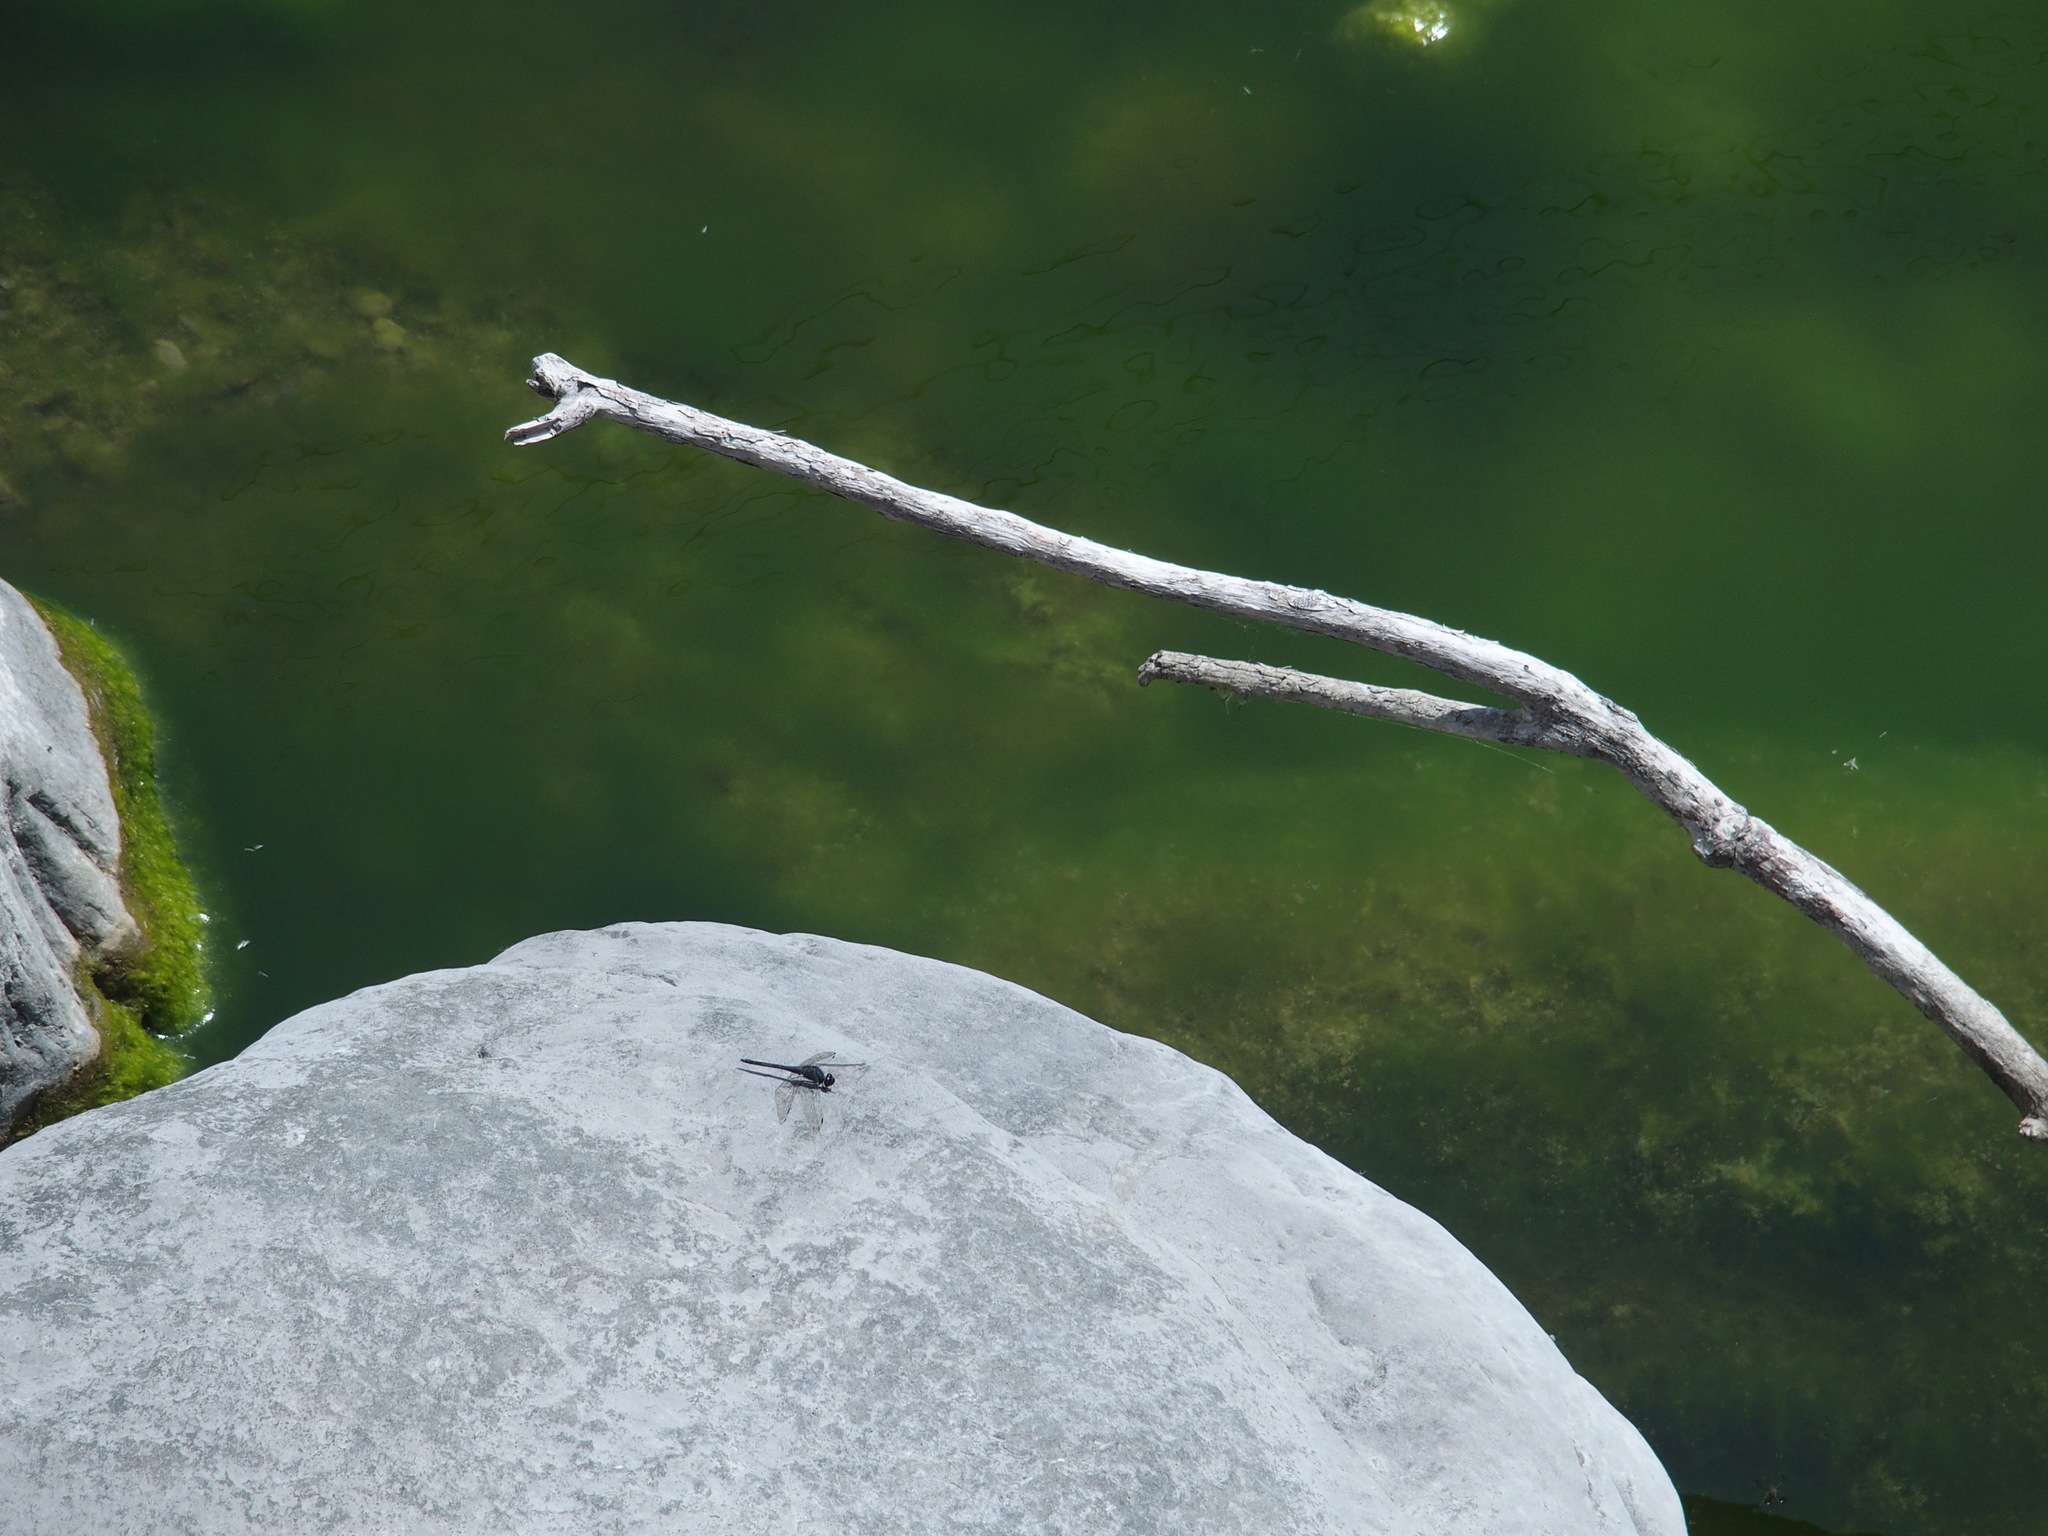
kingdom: Animalia
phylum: Arthropoda
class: Insecta
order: Odonata
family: Libellulidae
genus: Trithemis
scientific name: Trithemis festiva
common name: Indigo dropwing
